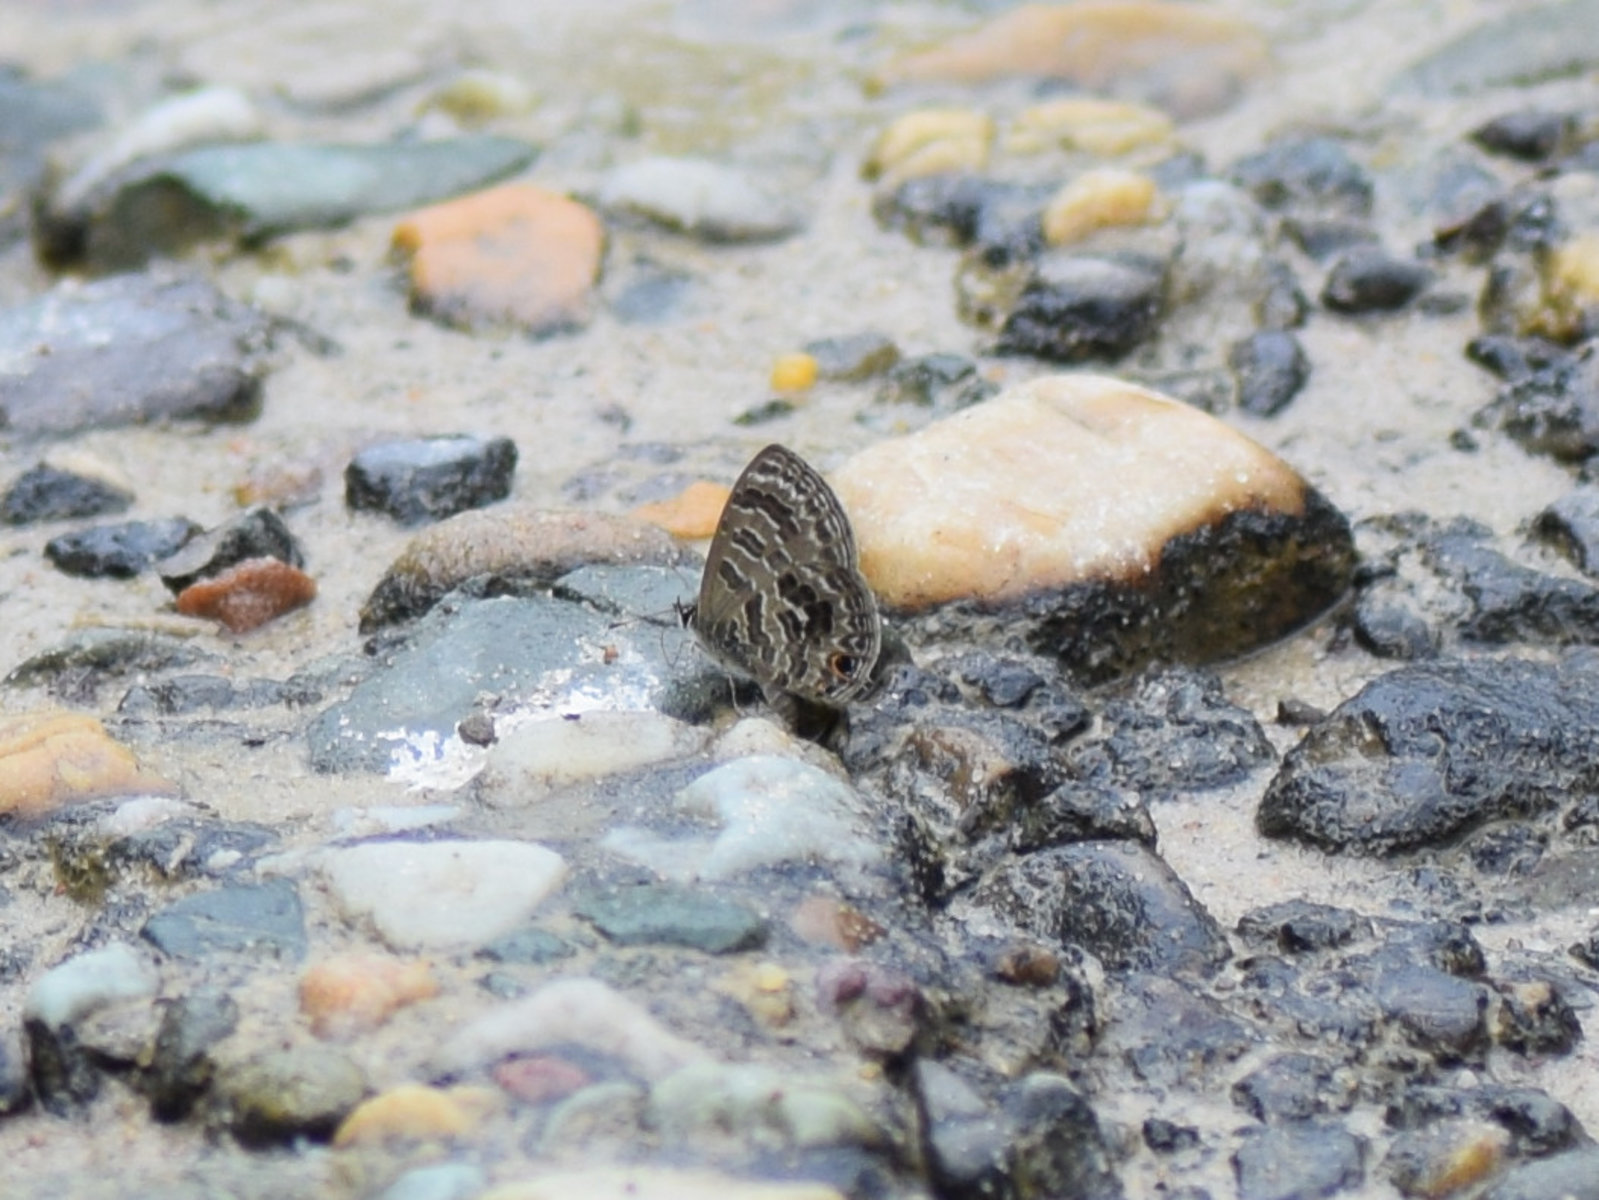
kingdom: Animalia
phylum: Arthropoda
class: Insecta
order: Lepidoptera
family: Lycaenidae
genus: Prosotas
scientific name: Prosotas aluta
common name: Barred lineblue
